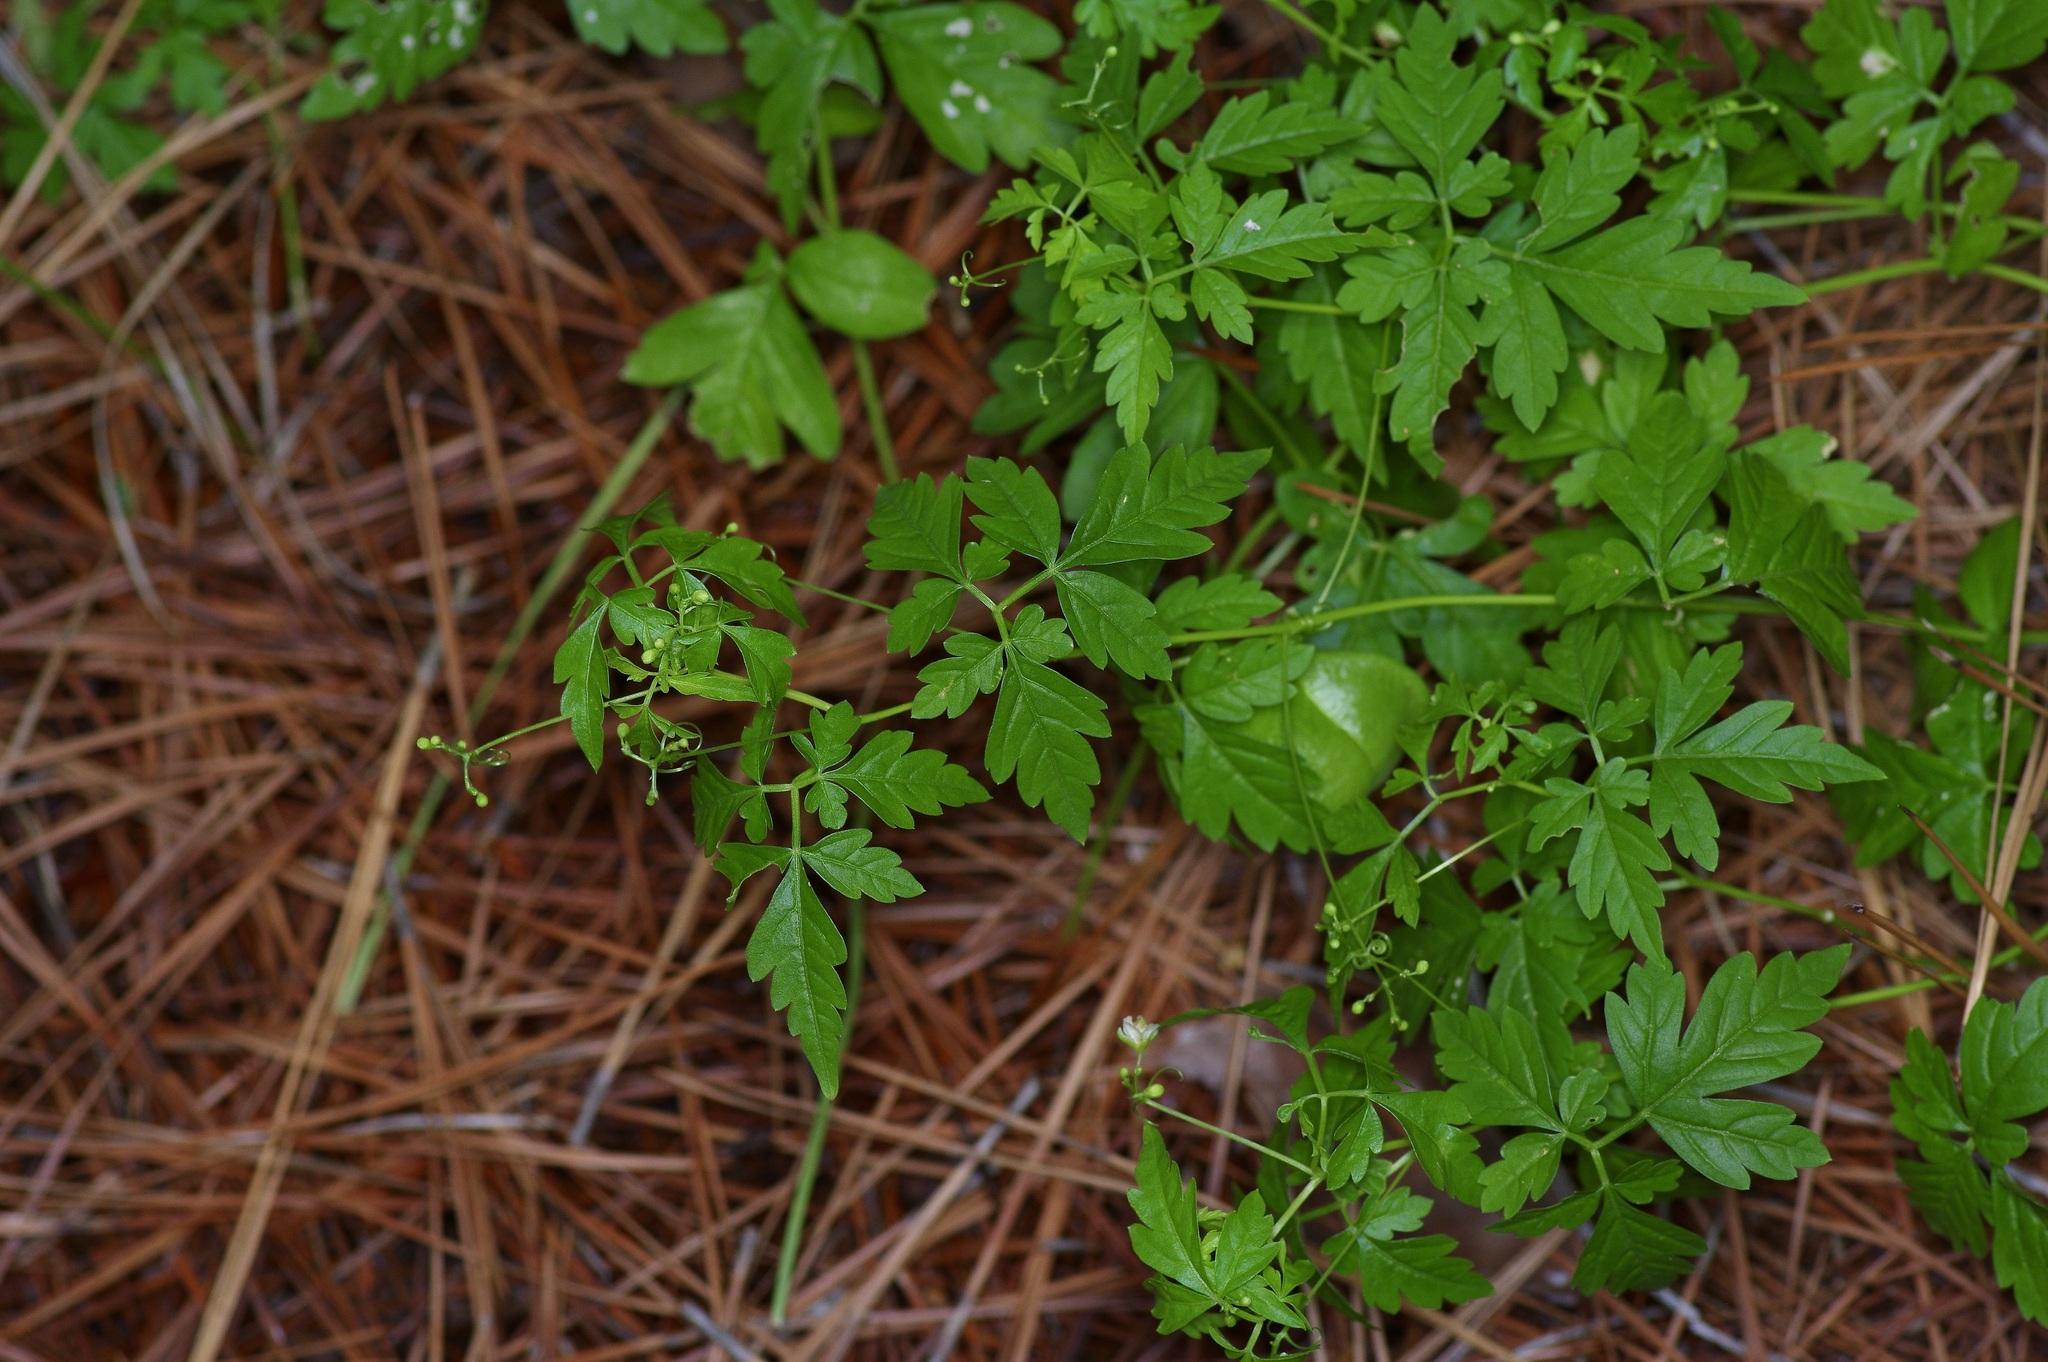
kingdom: Plantae
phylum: Tracheophyta
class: Magnoliopsida
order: Sapindales
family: Sapindaceae
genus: Cardiospermum
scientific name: Cardiospermum halicacabum
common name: Balloon vine
